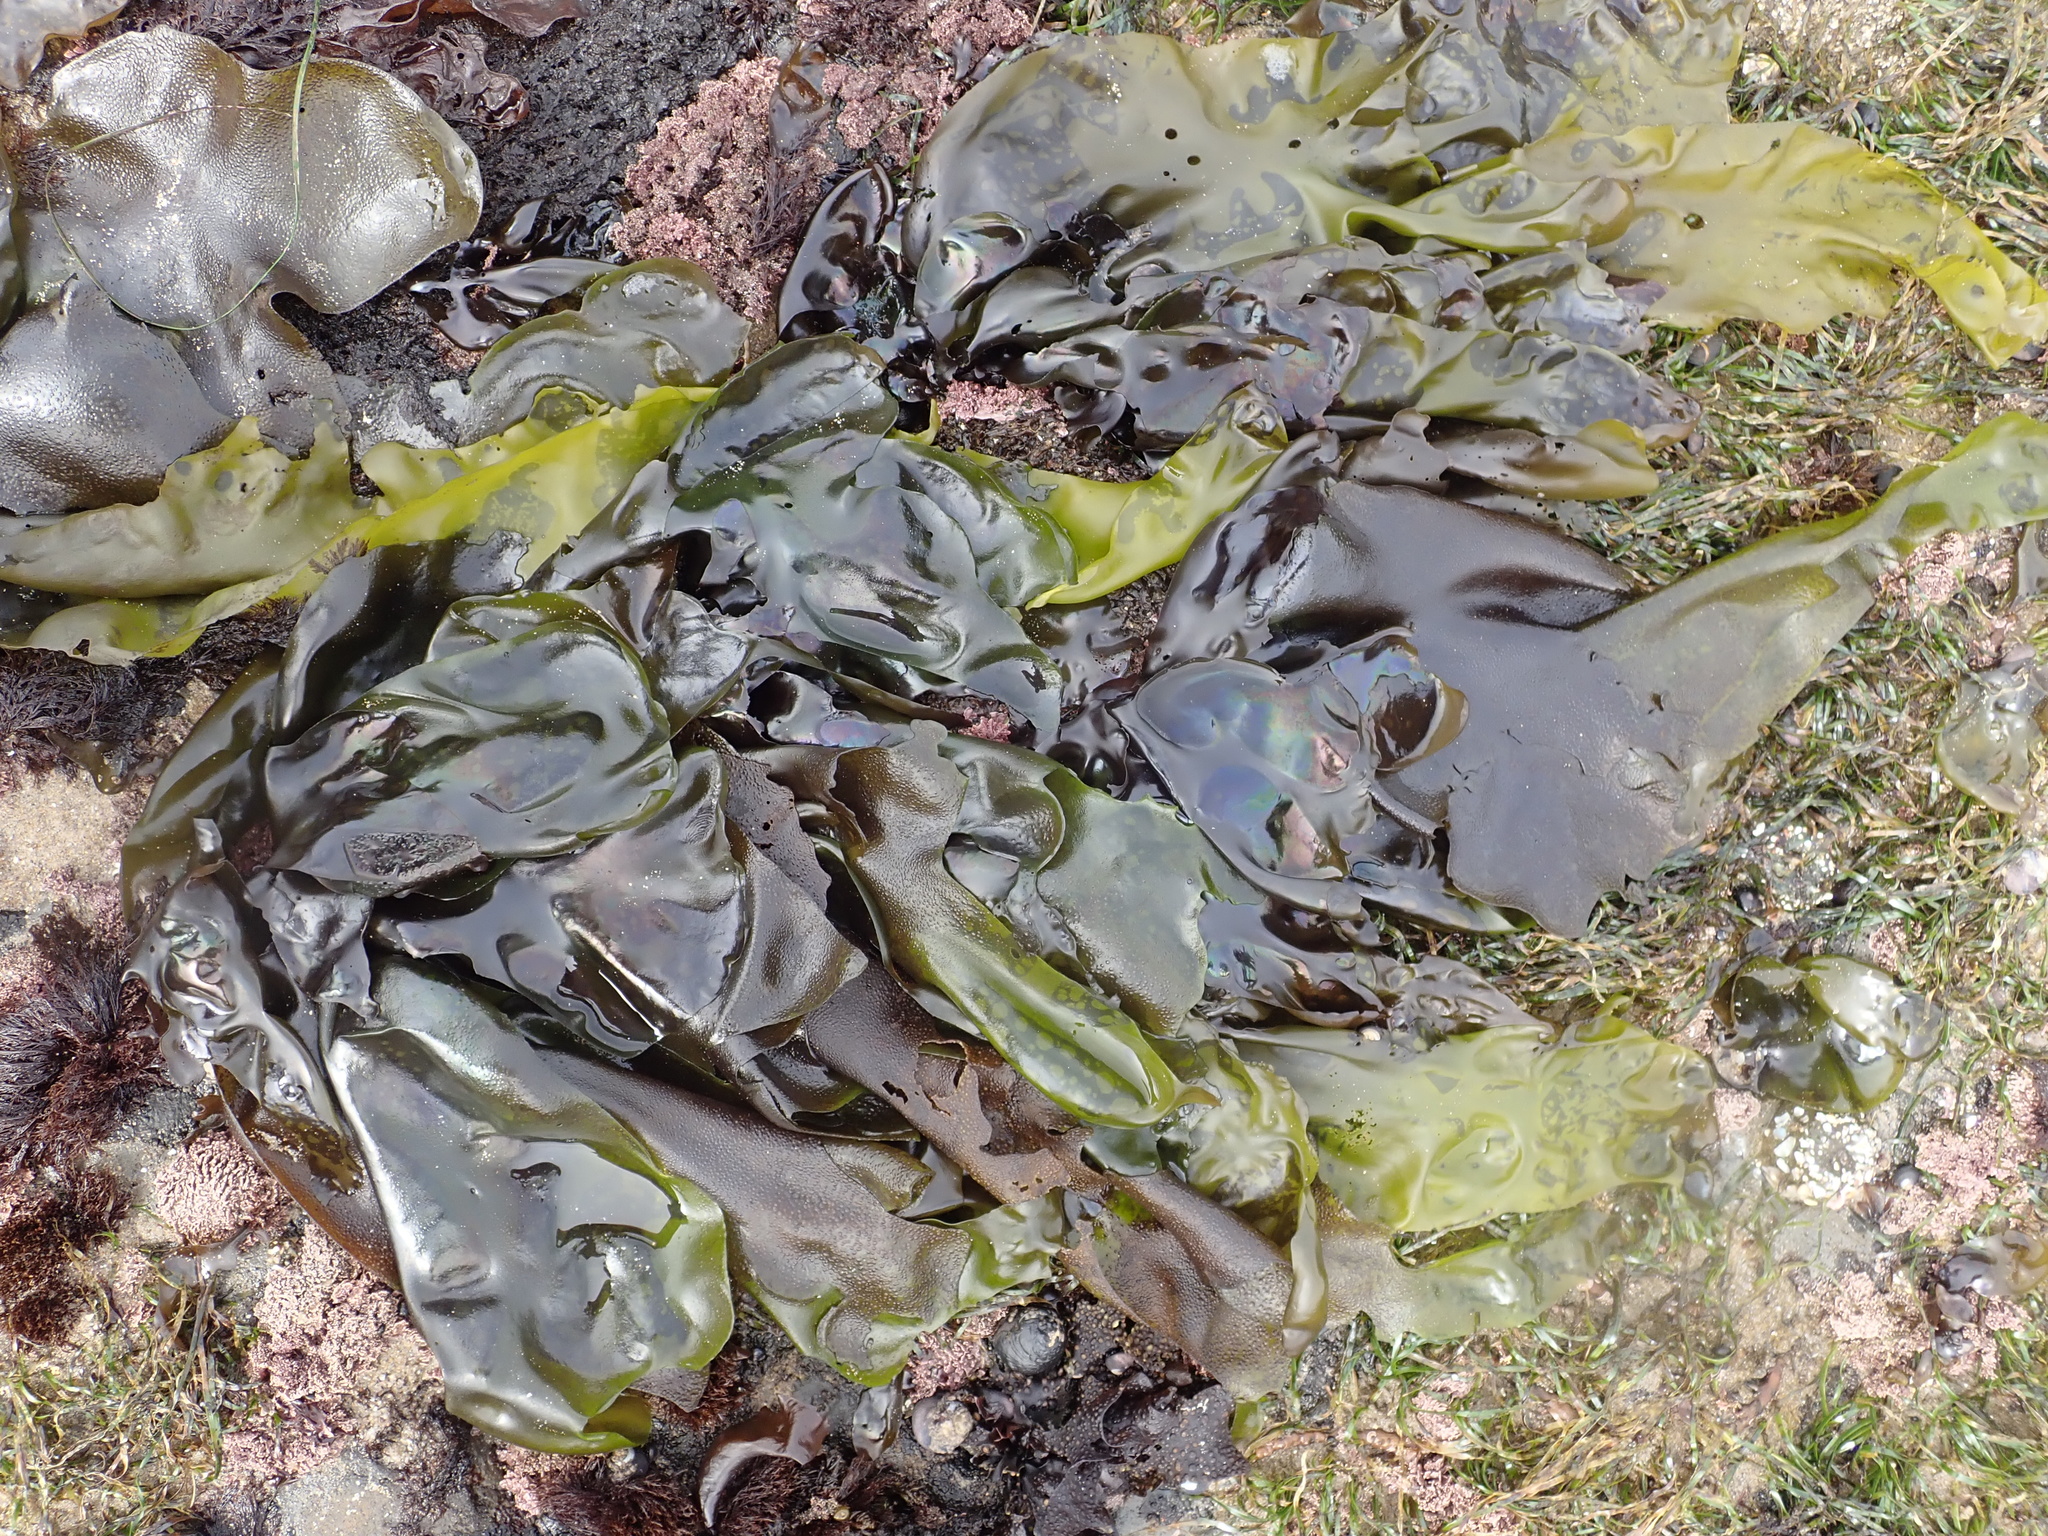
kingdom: Plantae
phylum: Rhodophyta
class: Florideophyceae
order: Gigartinales
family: Gigartinaceae
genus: Mazzaella
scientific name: Mazzaella flaccida
